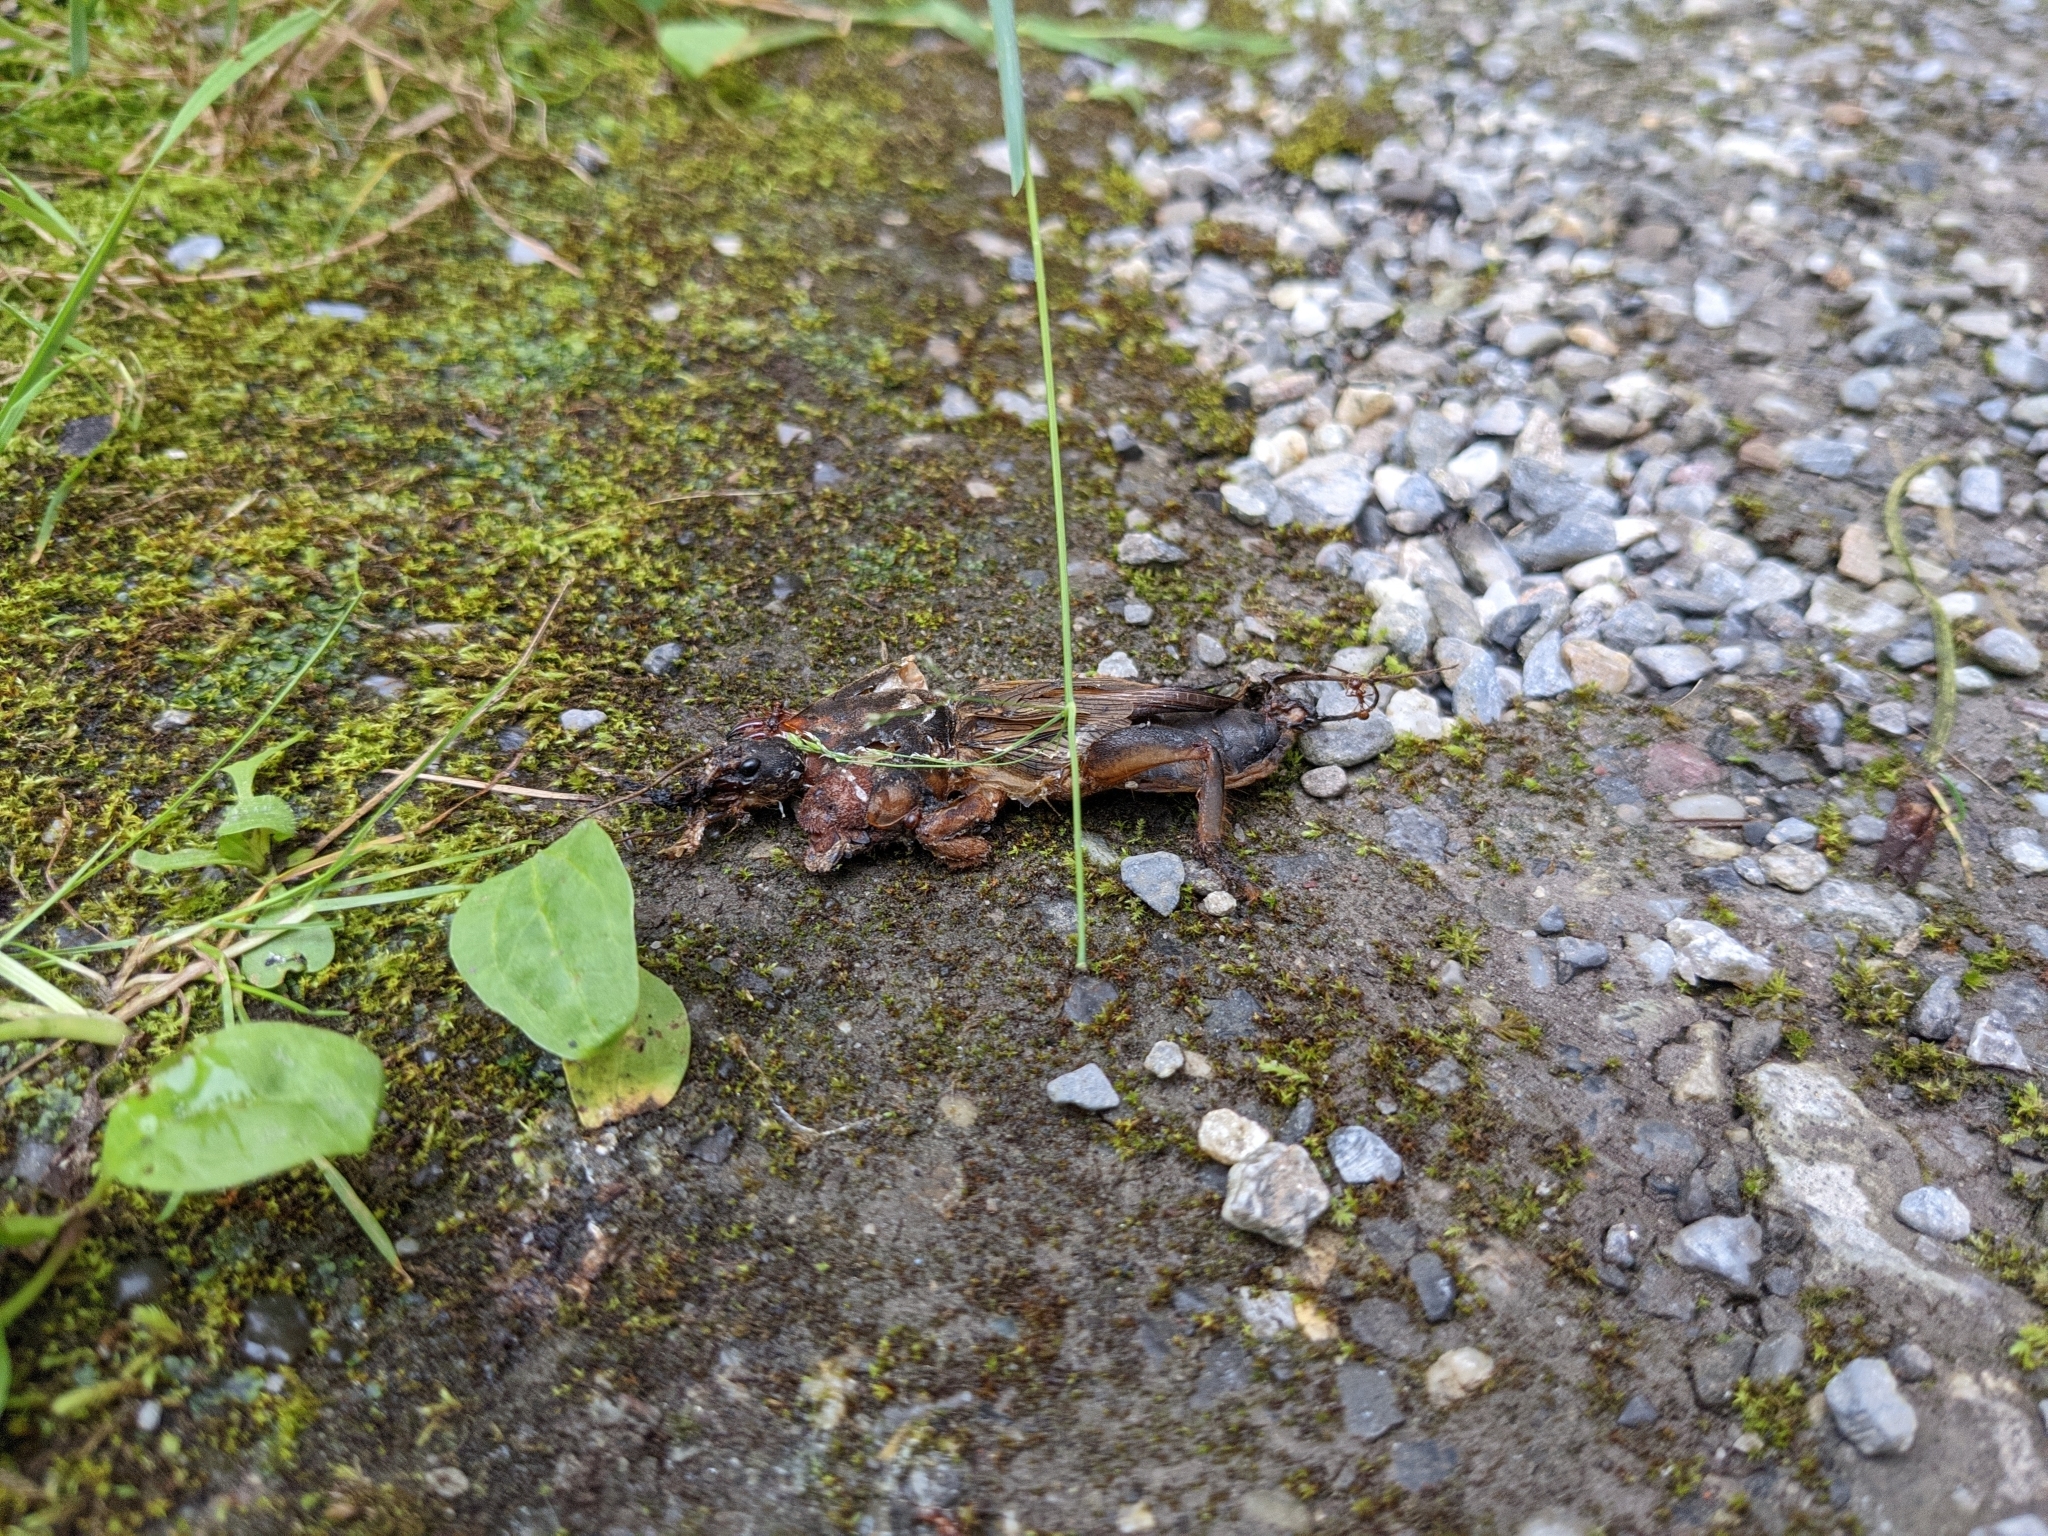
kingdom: Animalia
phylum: Arthropoda
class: Insecta
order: Orthoptera
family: Gryllotalpidae
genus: Gryllotalpa
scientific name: Gryllotalpa gryllotalpa
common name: European mole cricket
